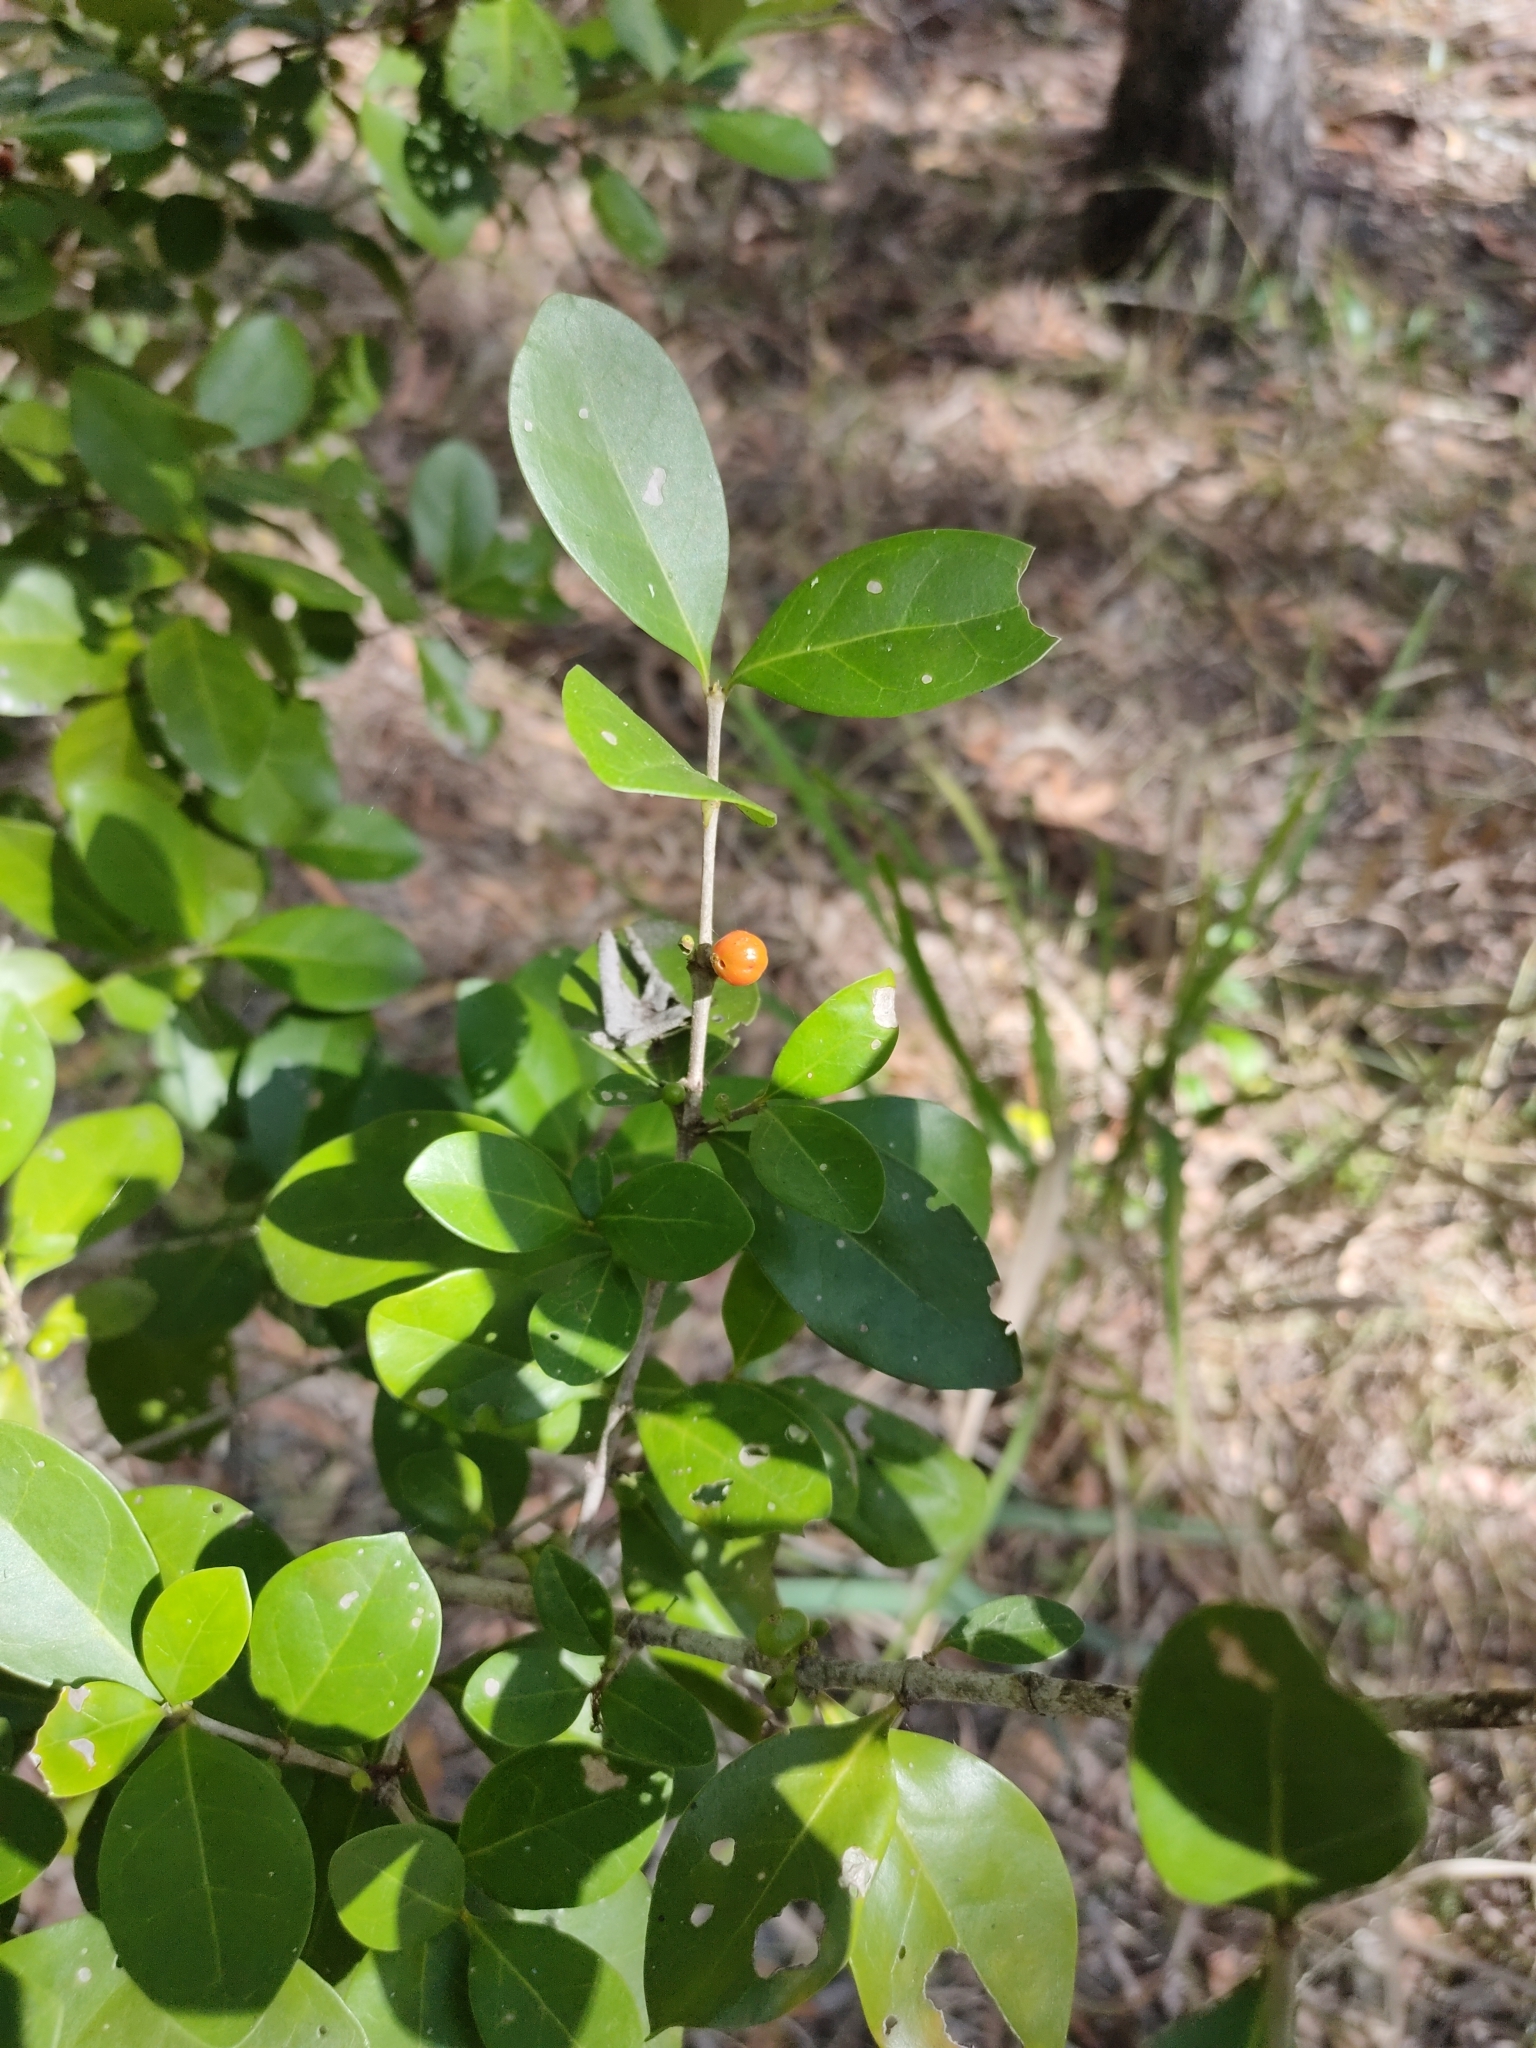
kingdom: Plantae
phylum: Tracheophyta
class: Magnoliopsida
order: Gentianales
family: Rubiaceae
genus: Cyclophyllum
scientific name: Cyclophyllum coprosmoides
